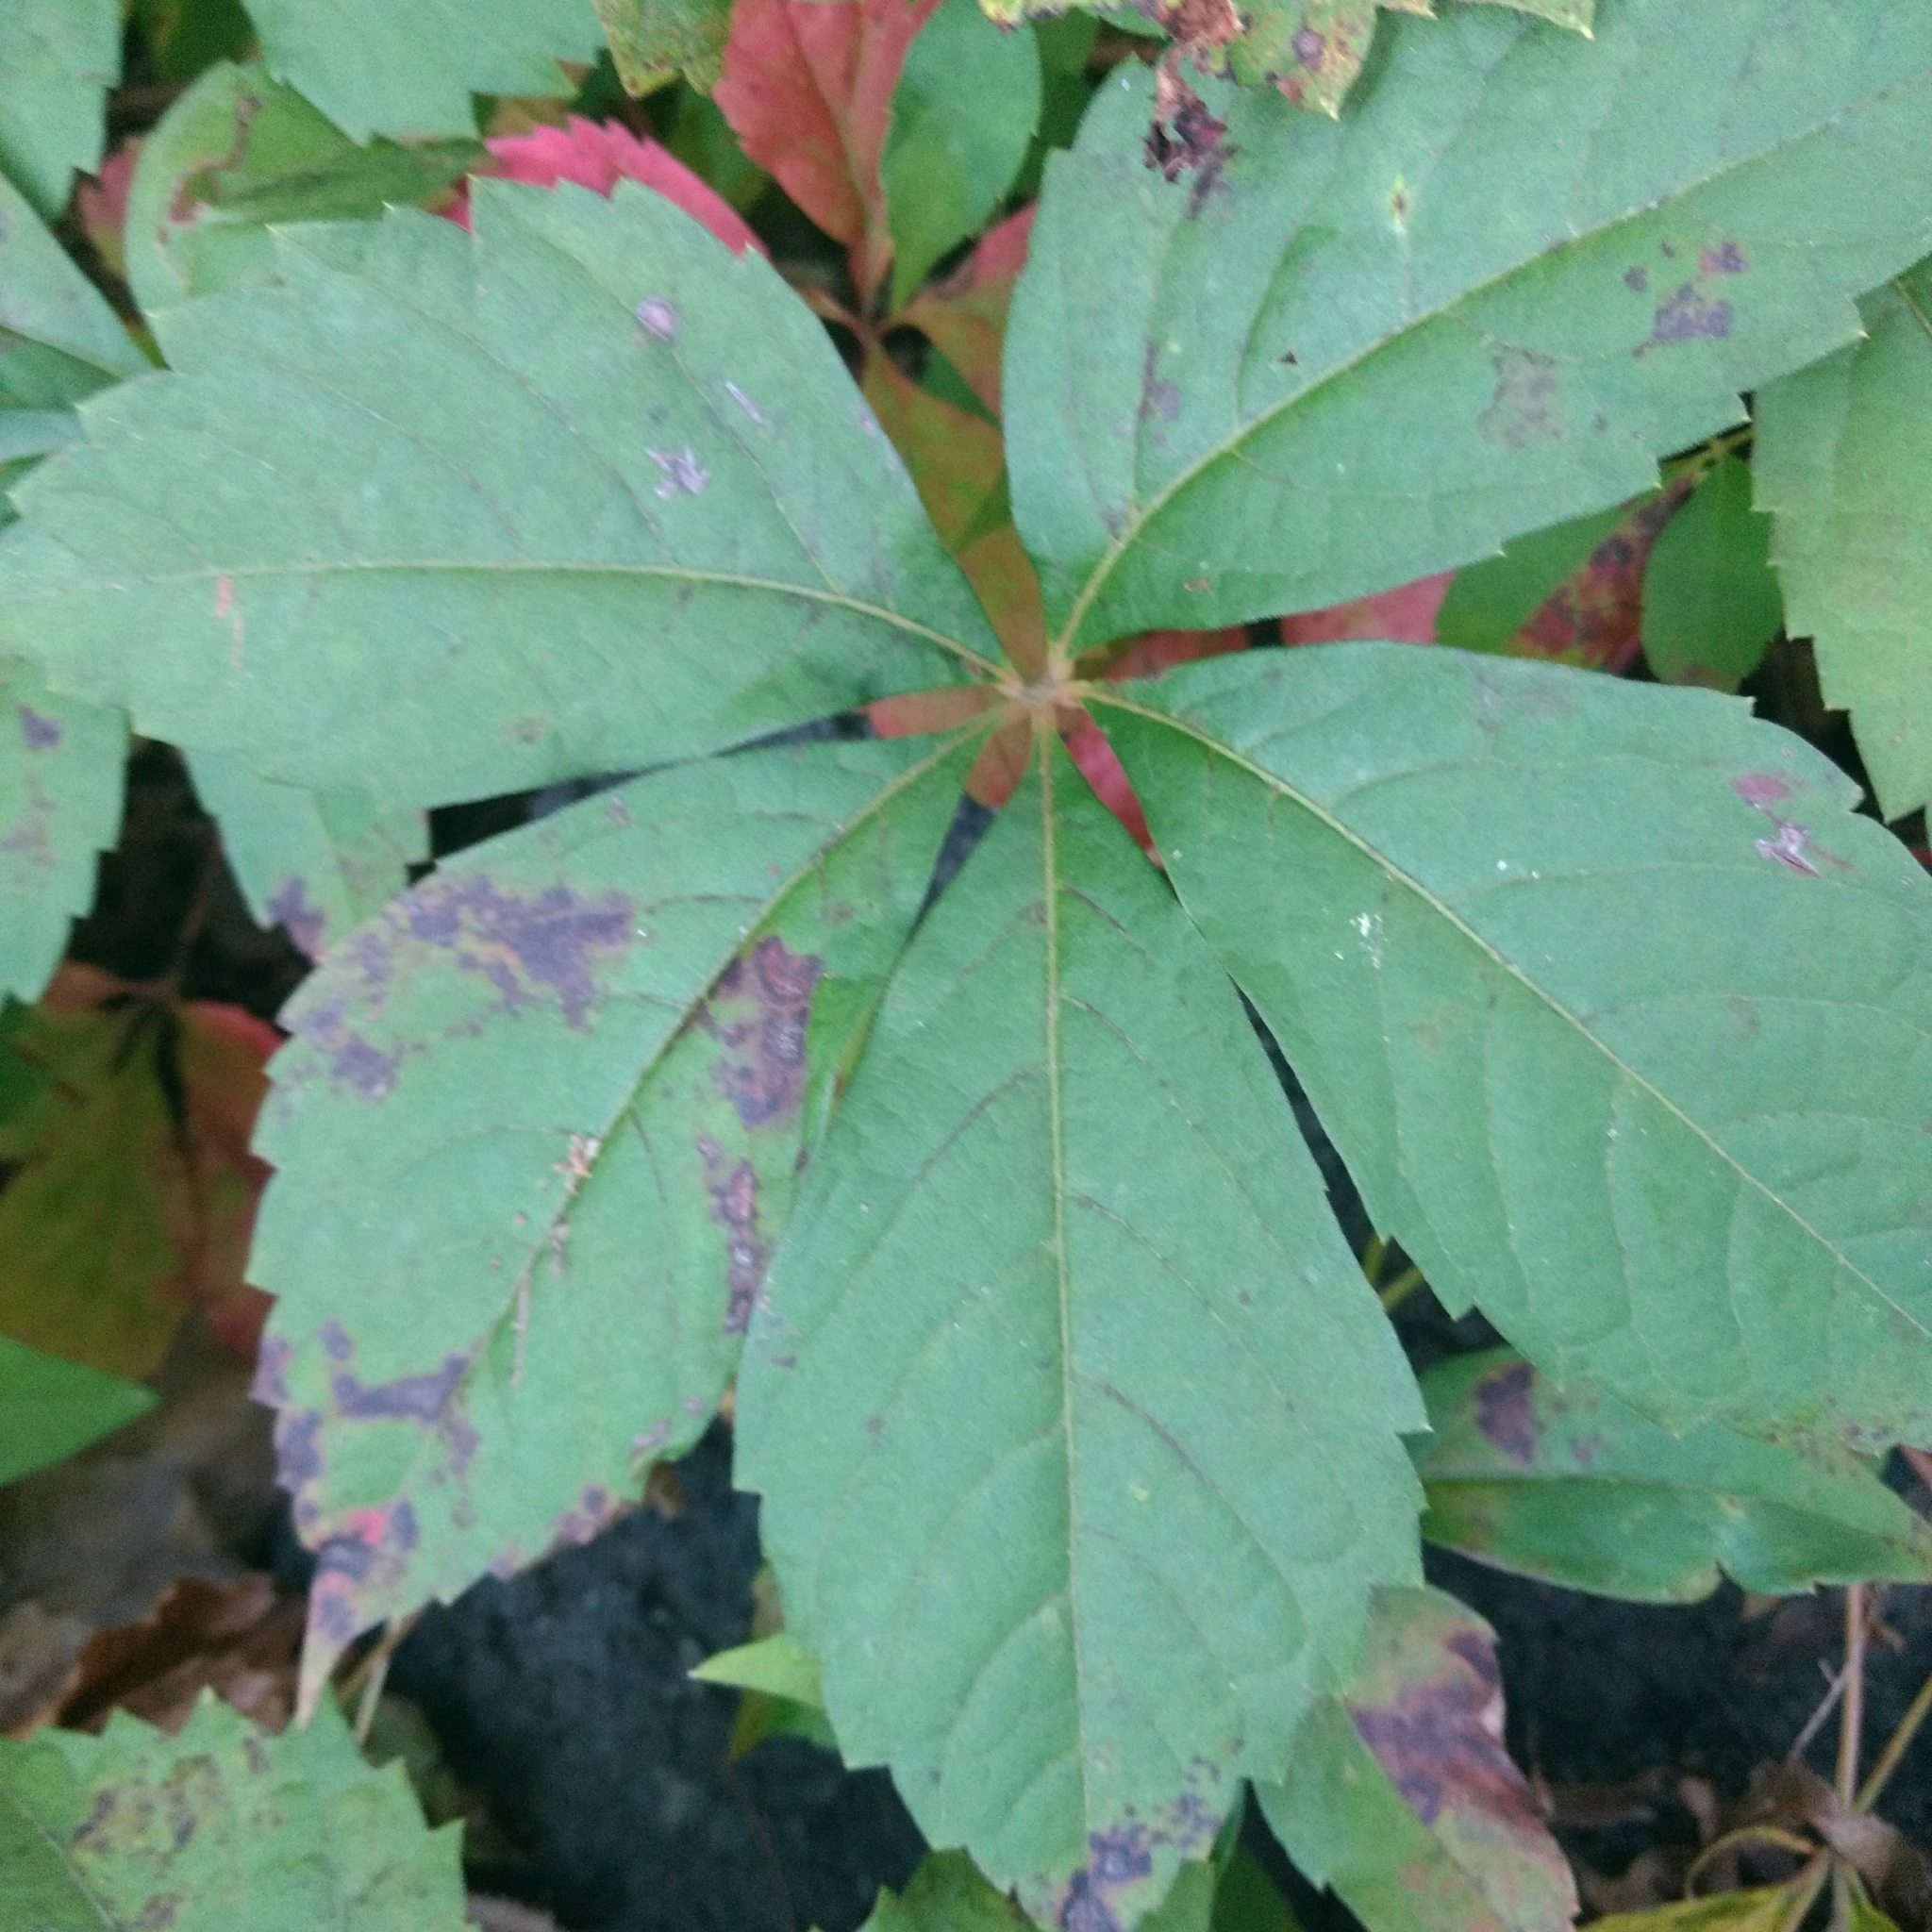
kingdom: Fungi
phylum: Ascomycota
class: Dothideomycetes
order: Botryosphaeriales
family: Phyllostictaceae
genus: Phyllosticta
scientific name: Phyllosticta parthenocissi
